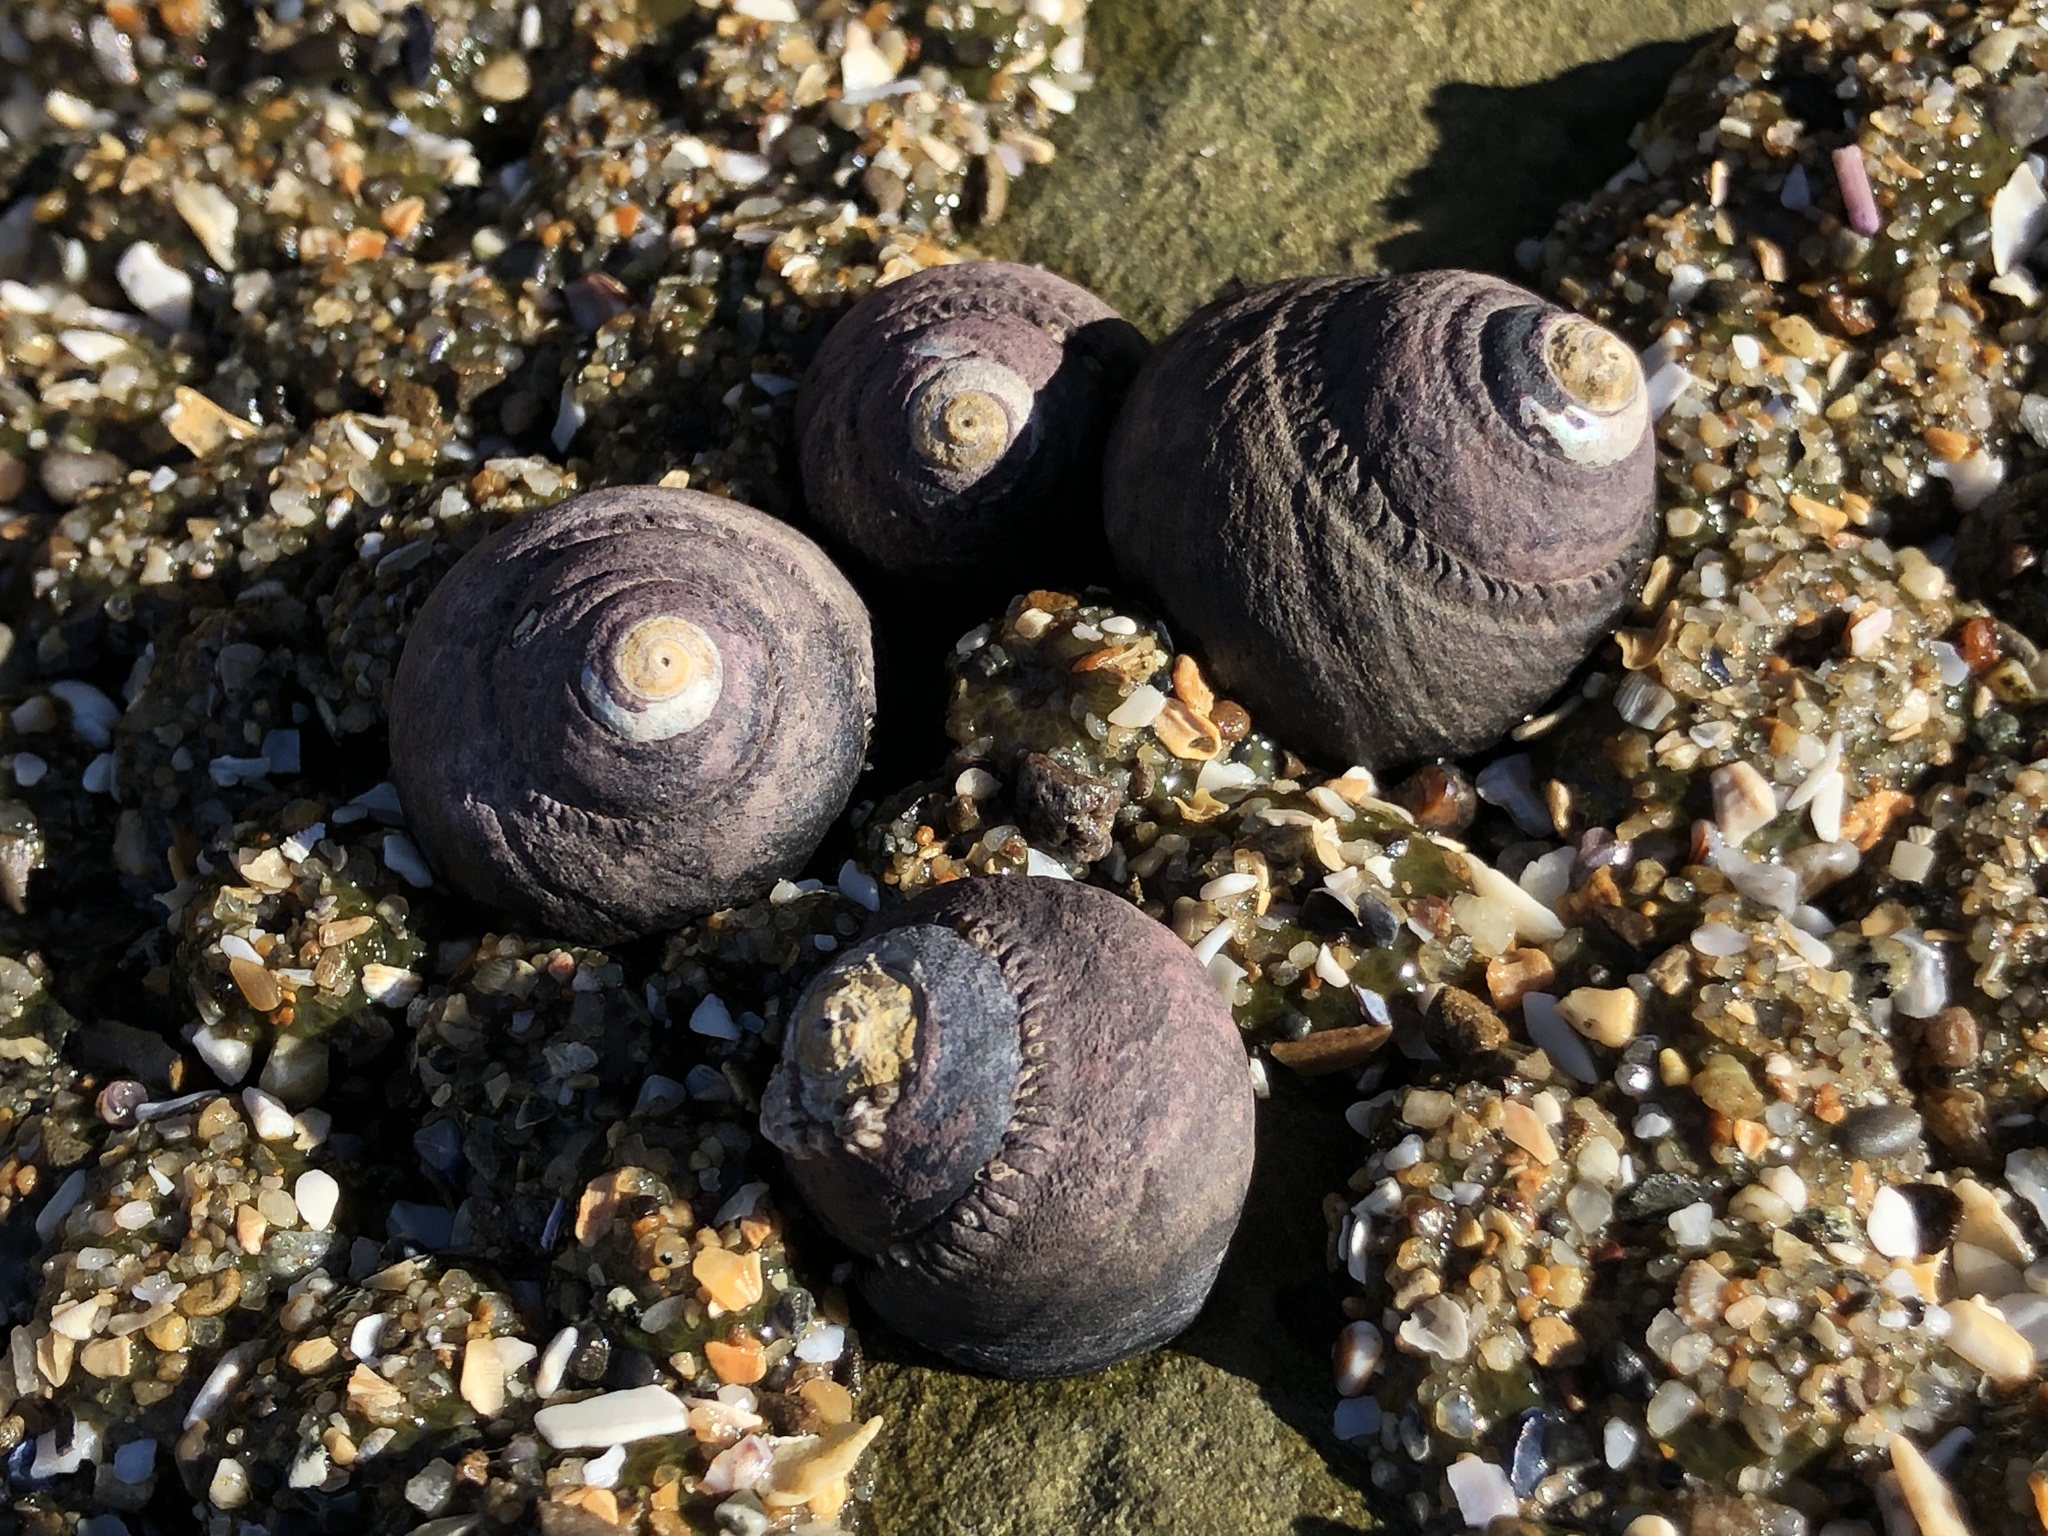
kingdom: Animalia
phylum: Mollusca
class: Gastropoda
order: Trochida
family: Tegulidae
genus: Tegula
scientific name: Tegula funebralis
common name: Black tegula
